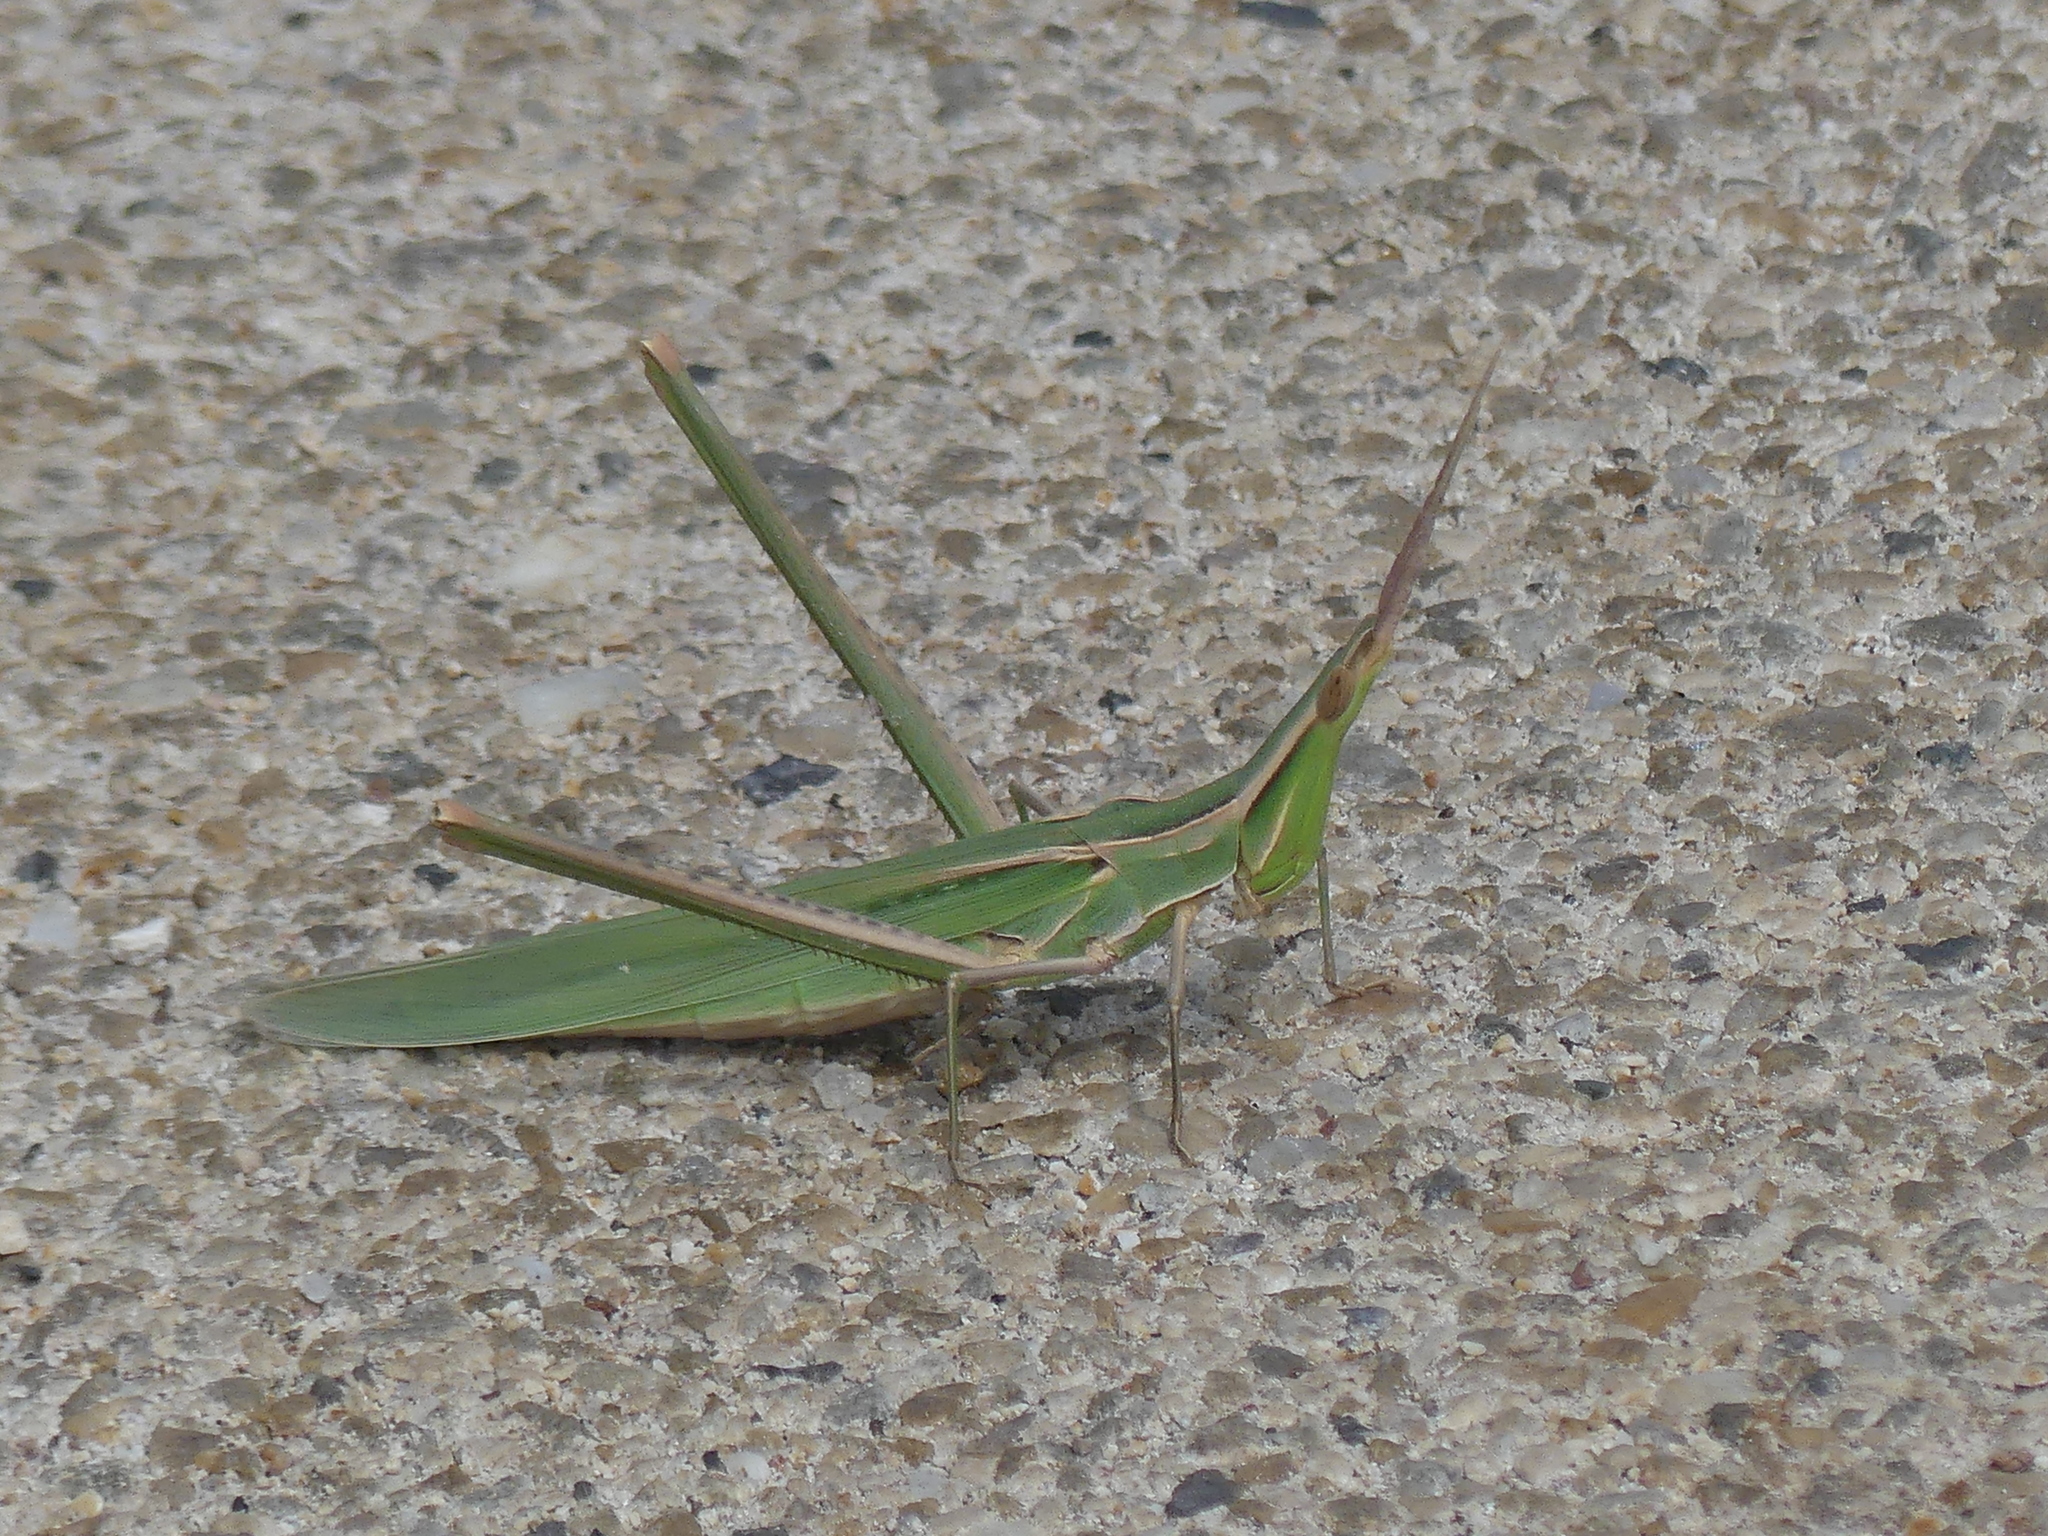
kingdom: Animalia
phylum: Arthropoda
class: Insecta
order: Orthoptera
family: Acrididae
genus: Acrida
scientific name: Acrida ungarica
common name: Common cone-headed grasshopper
